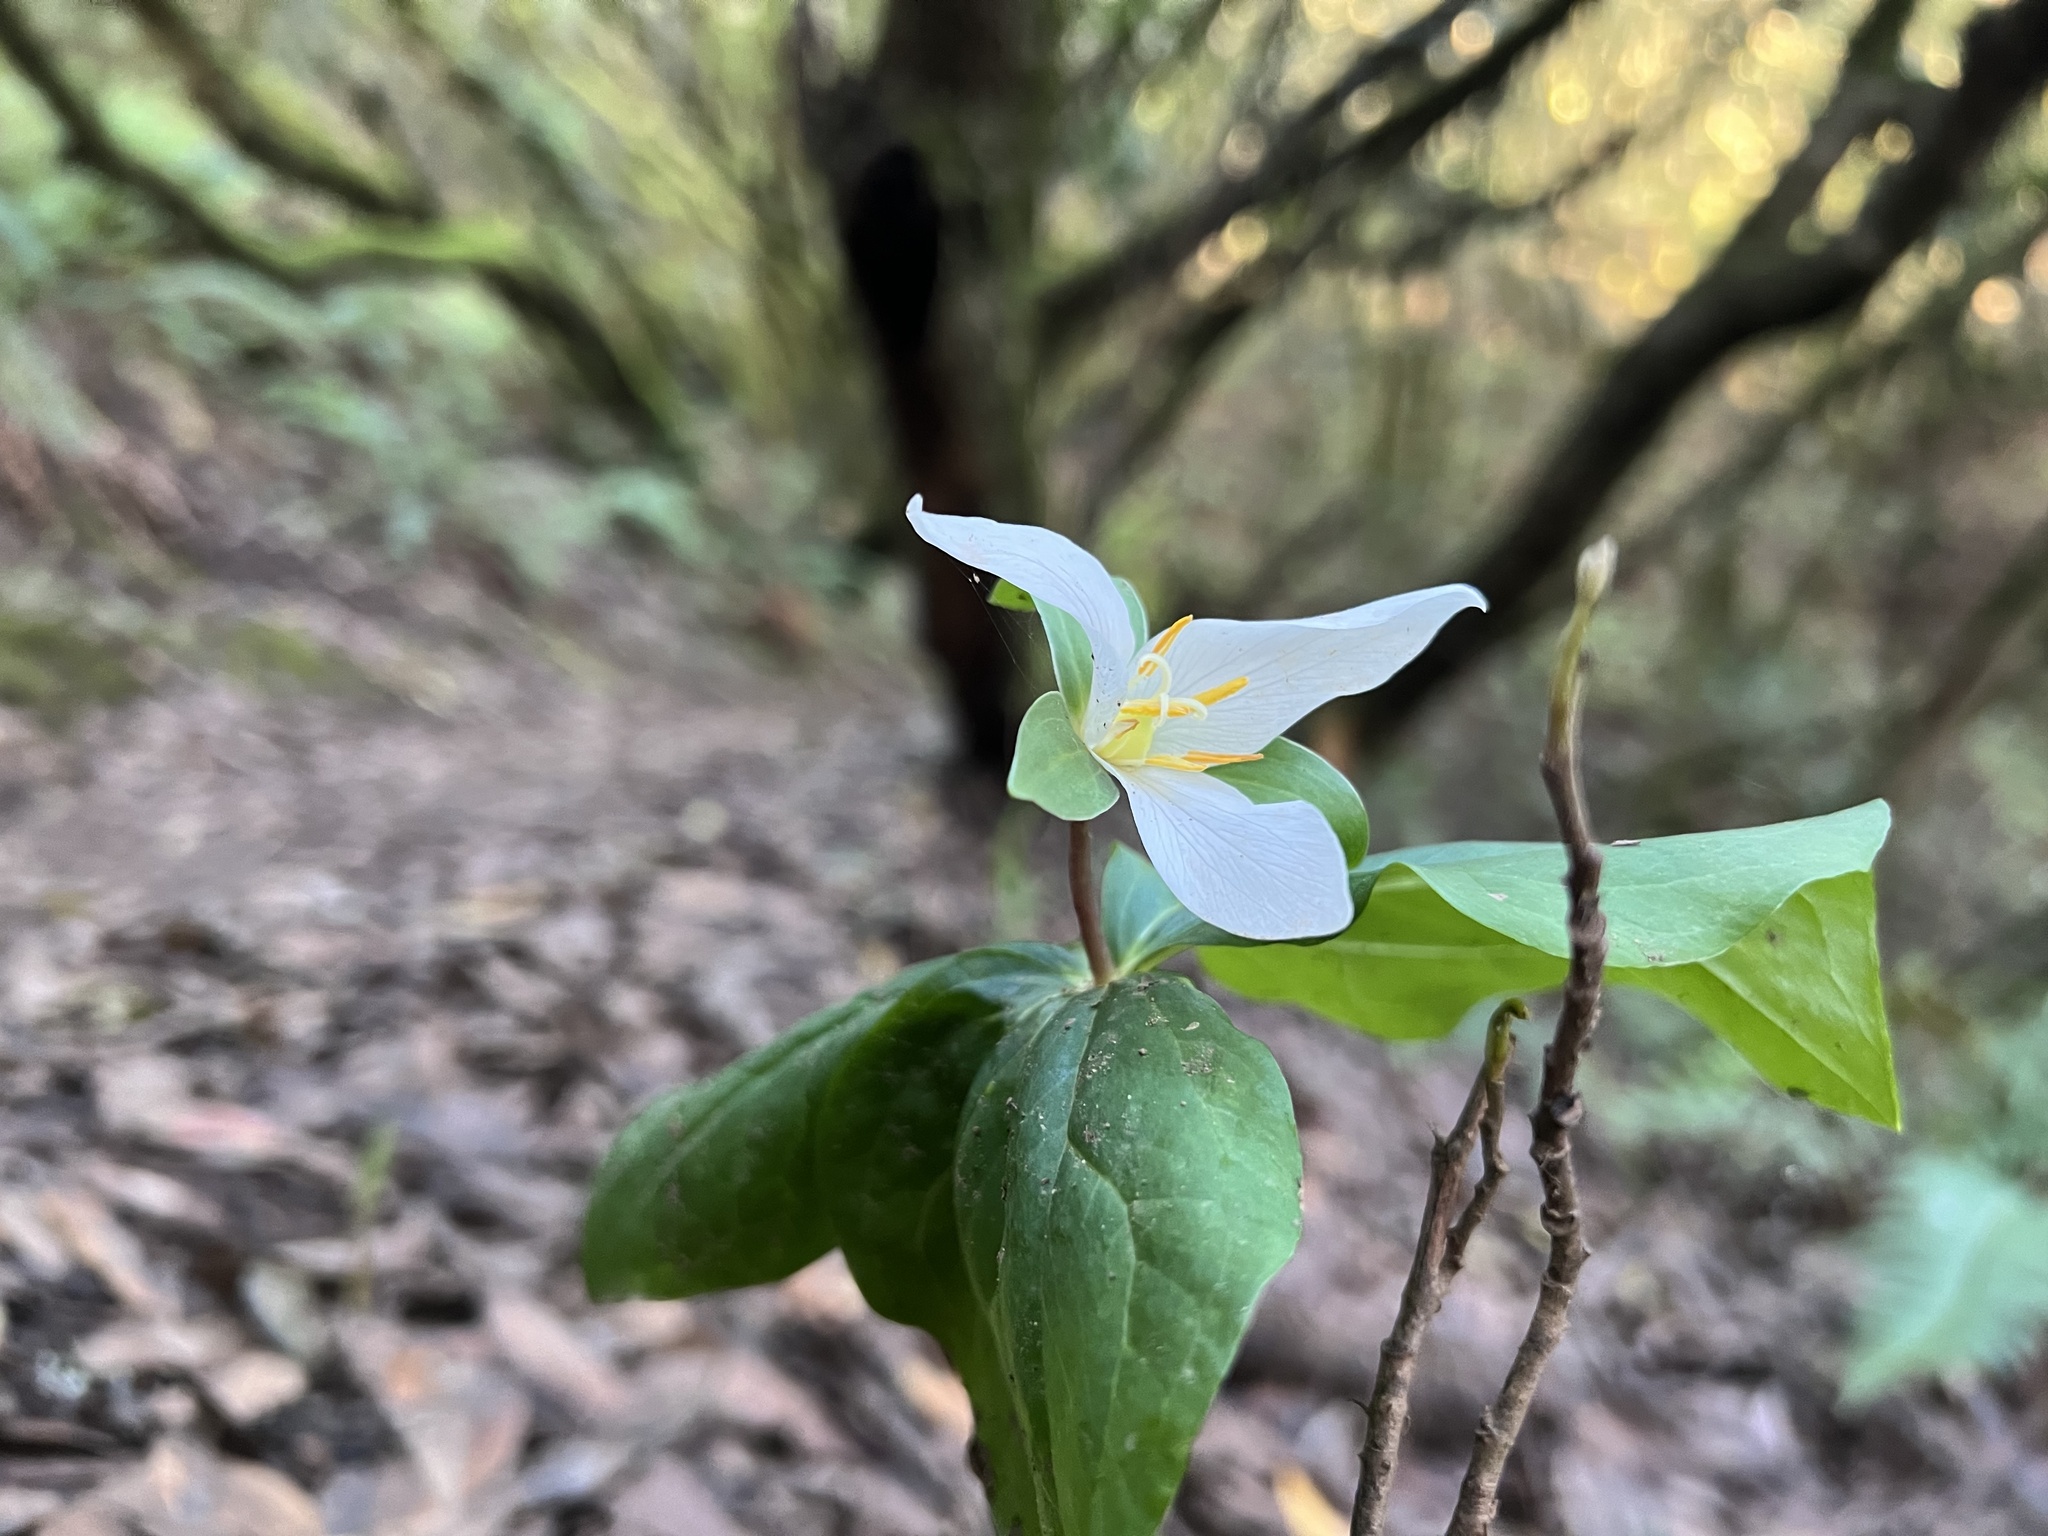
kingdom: Plantae
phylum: Tracheophyta
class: Liliopsida
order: Liliales
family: Melanthiaceae
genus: Trillium
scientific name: Trillium ovatum
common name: Pacific trillium
